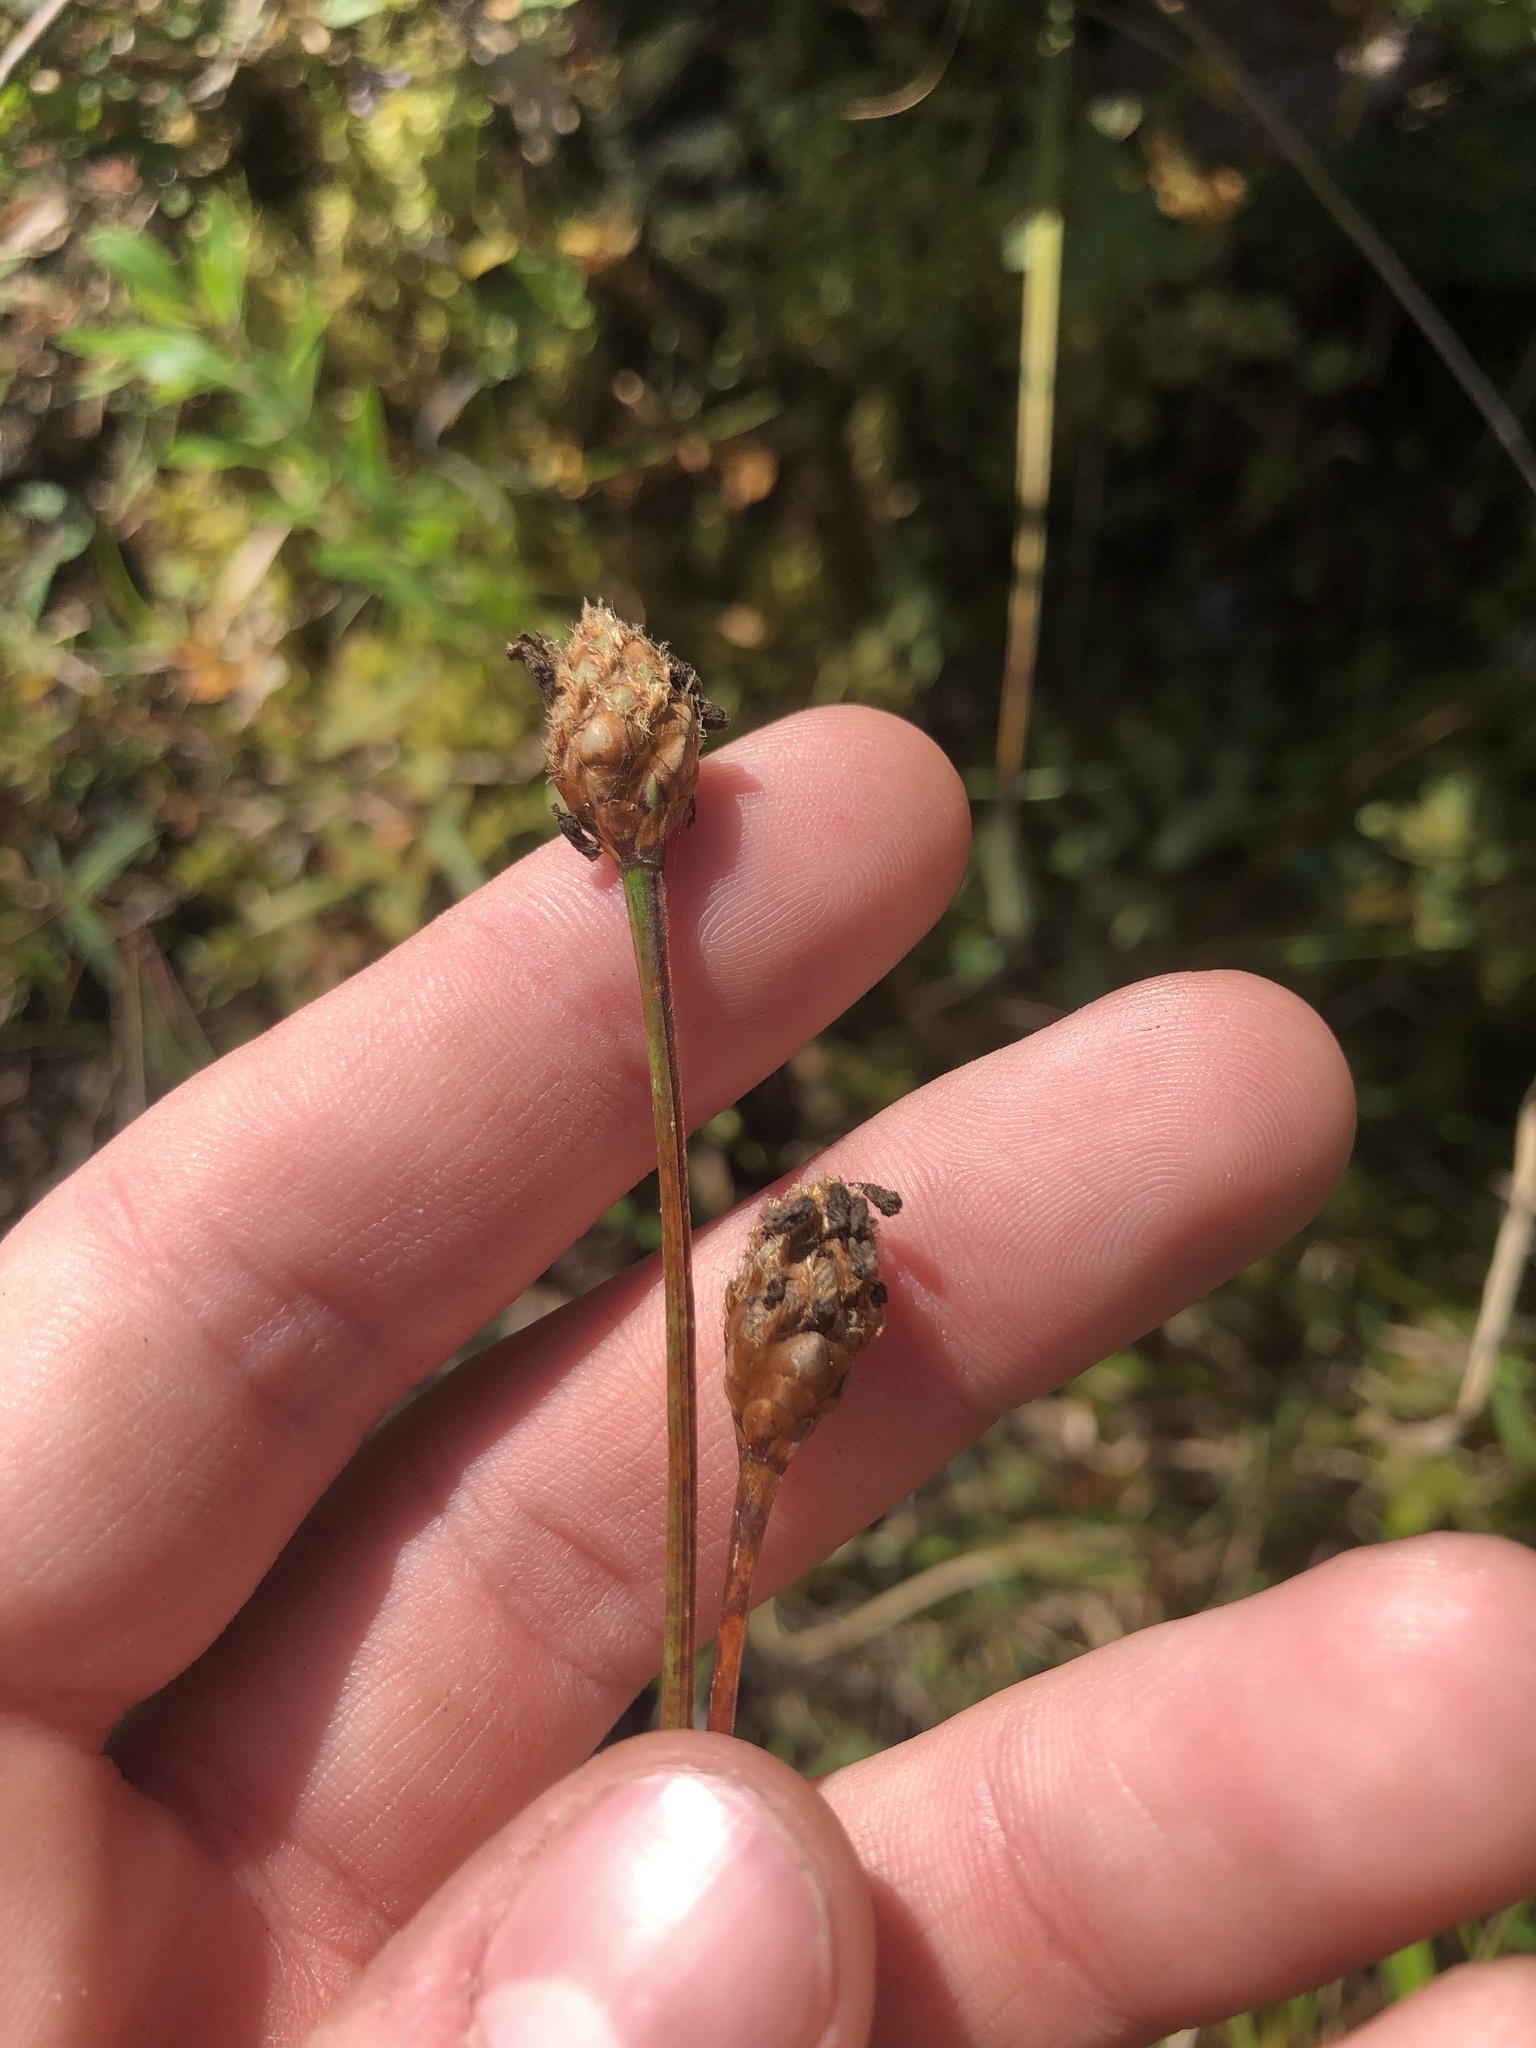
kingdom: Plantae
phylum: Tracheophyta
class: Liliopsida
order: Poales
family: Xyridaceae
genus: Xyris
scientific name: Xyris fimbriata
